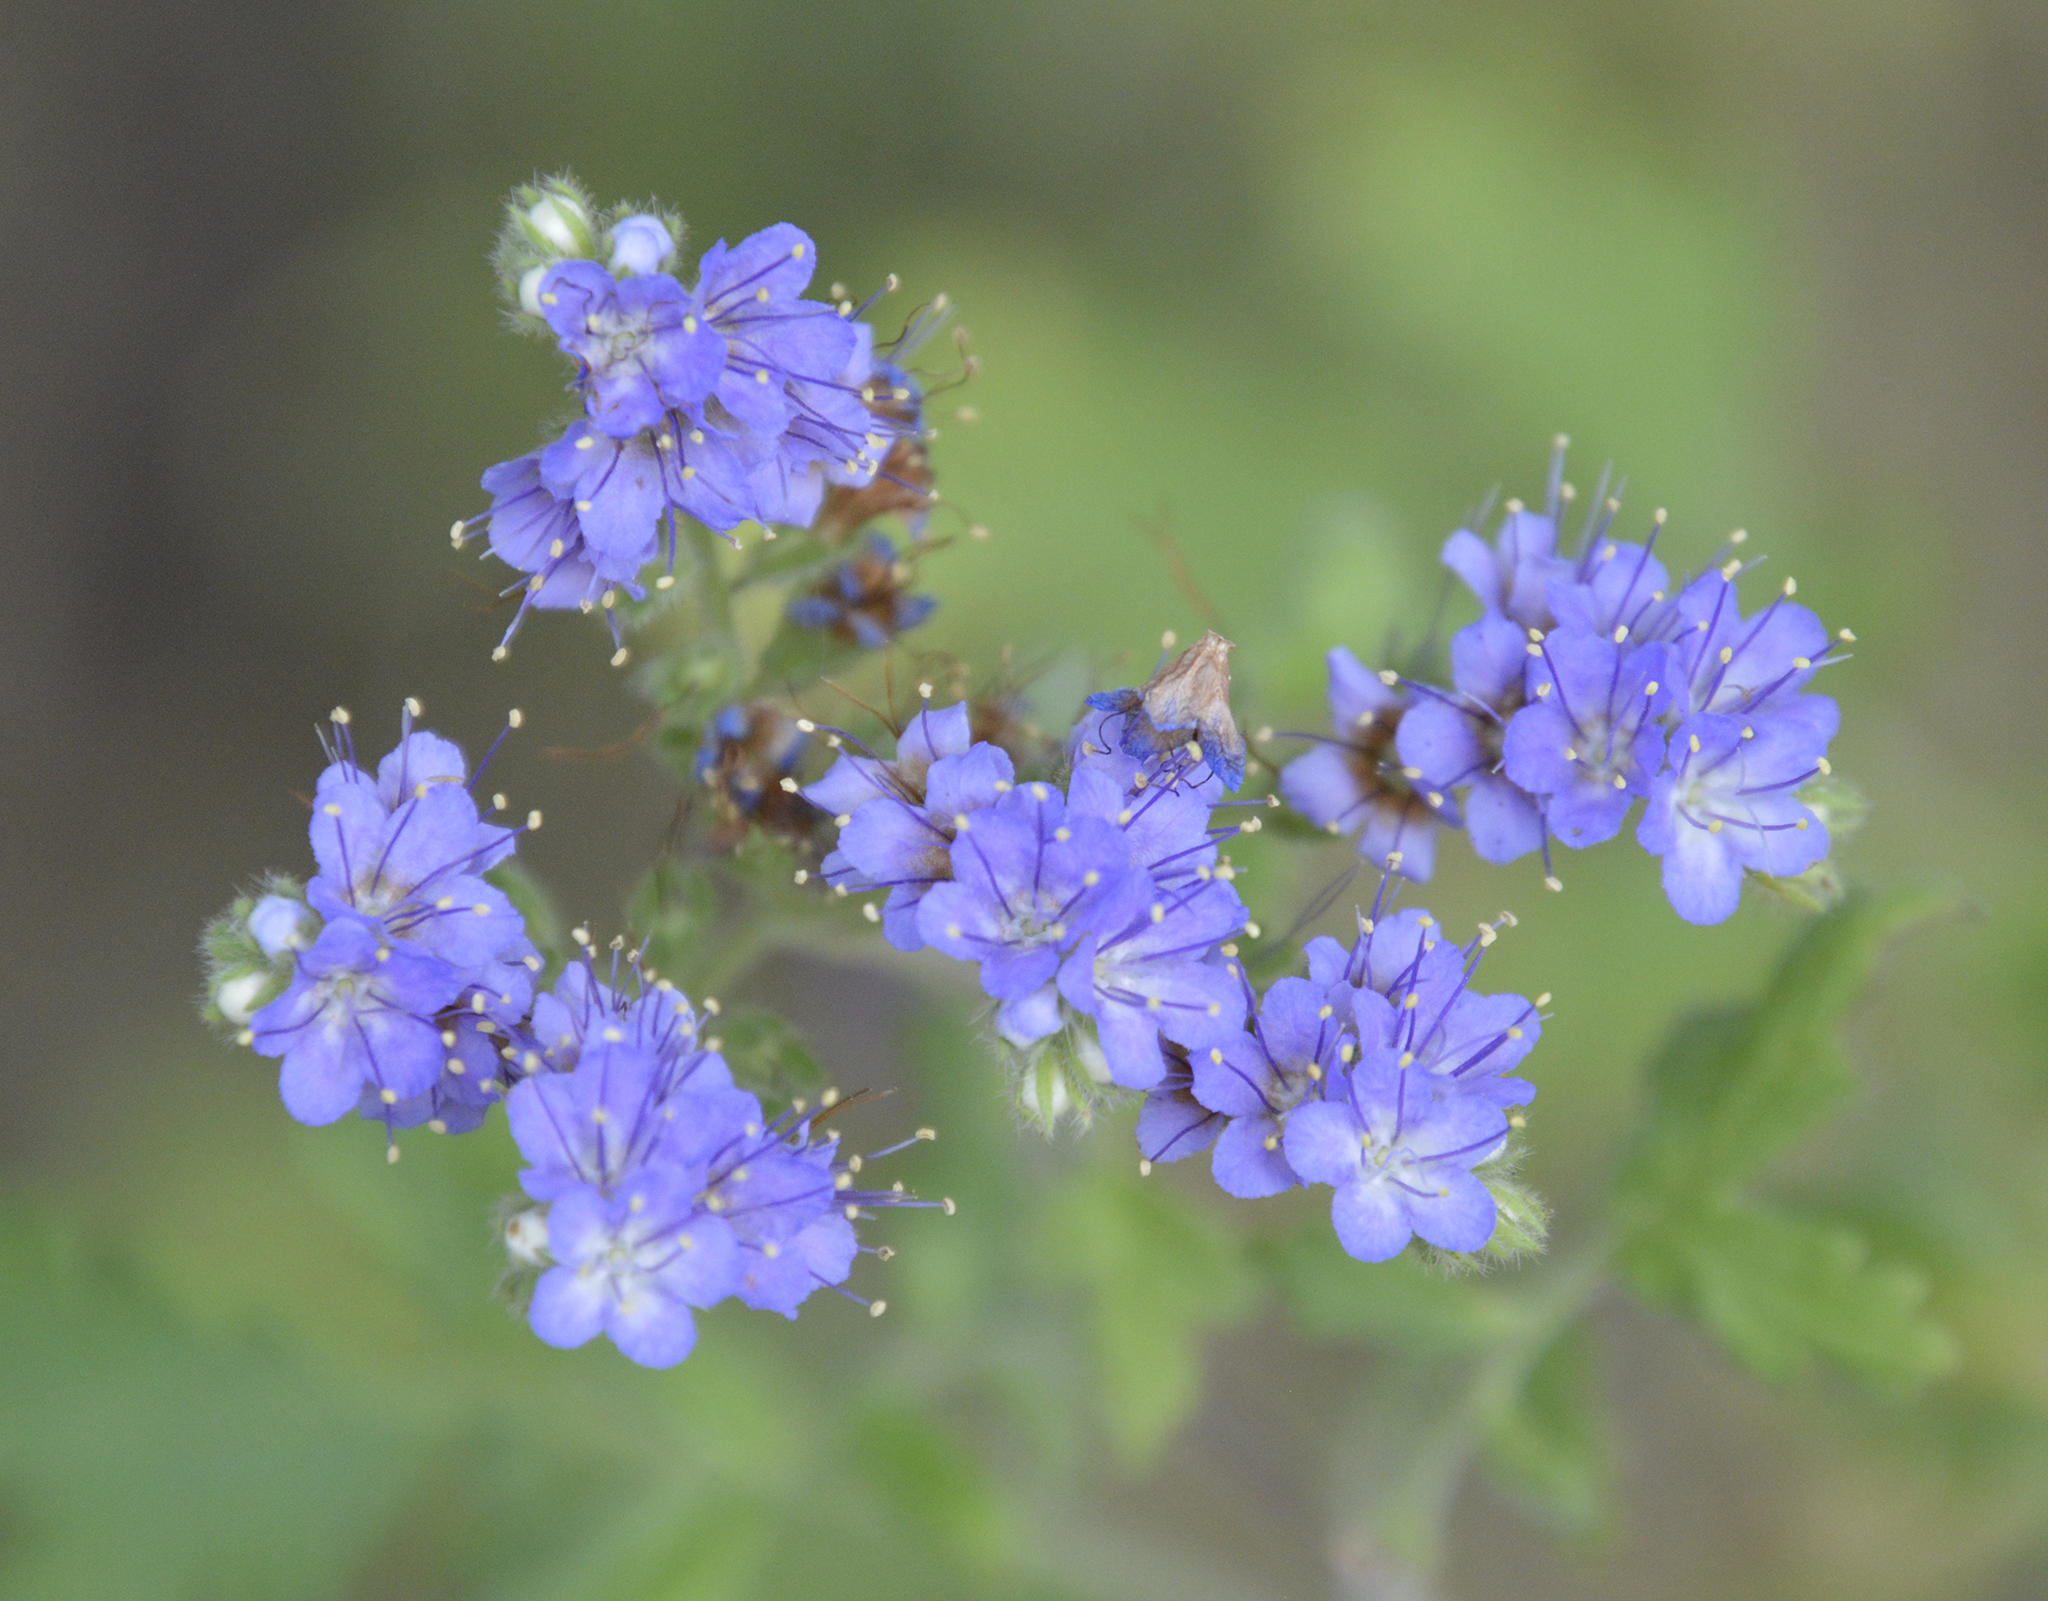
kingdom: Plantae
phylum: Tracheophyta
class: Magnoliopsida
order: Boraginales
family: Hydrophyllaceae
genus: Phacelia
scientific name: Phacelia congesta
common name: Blue curls
